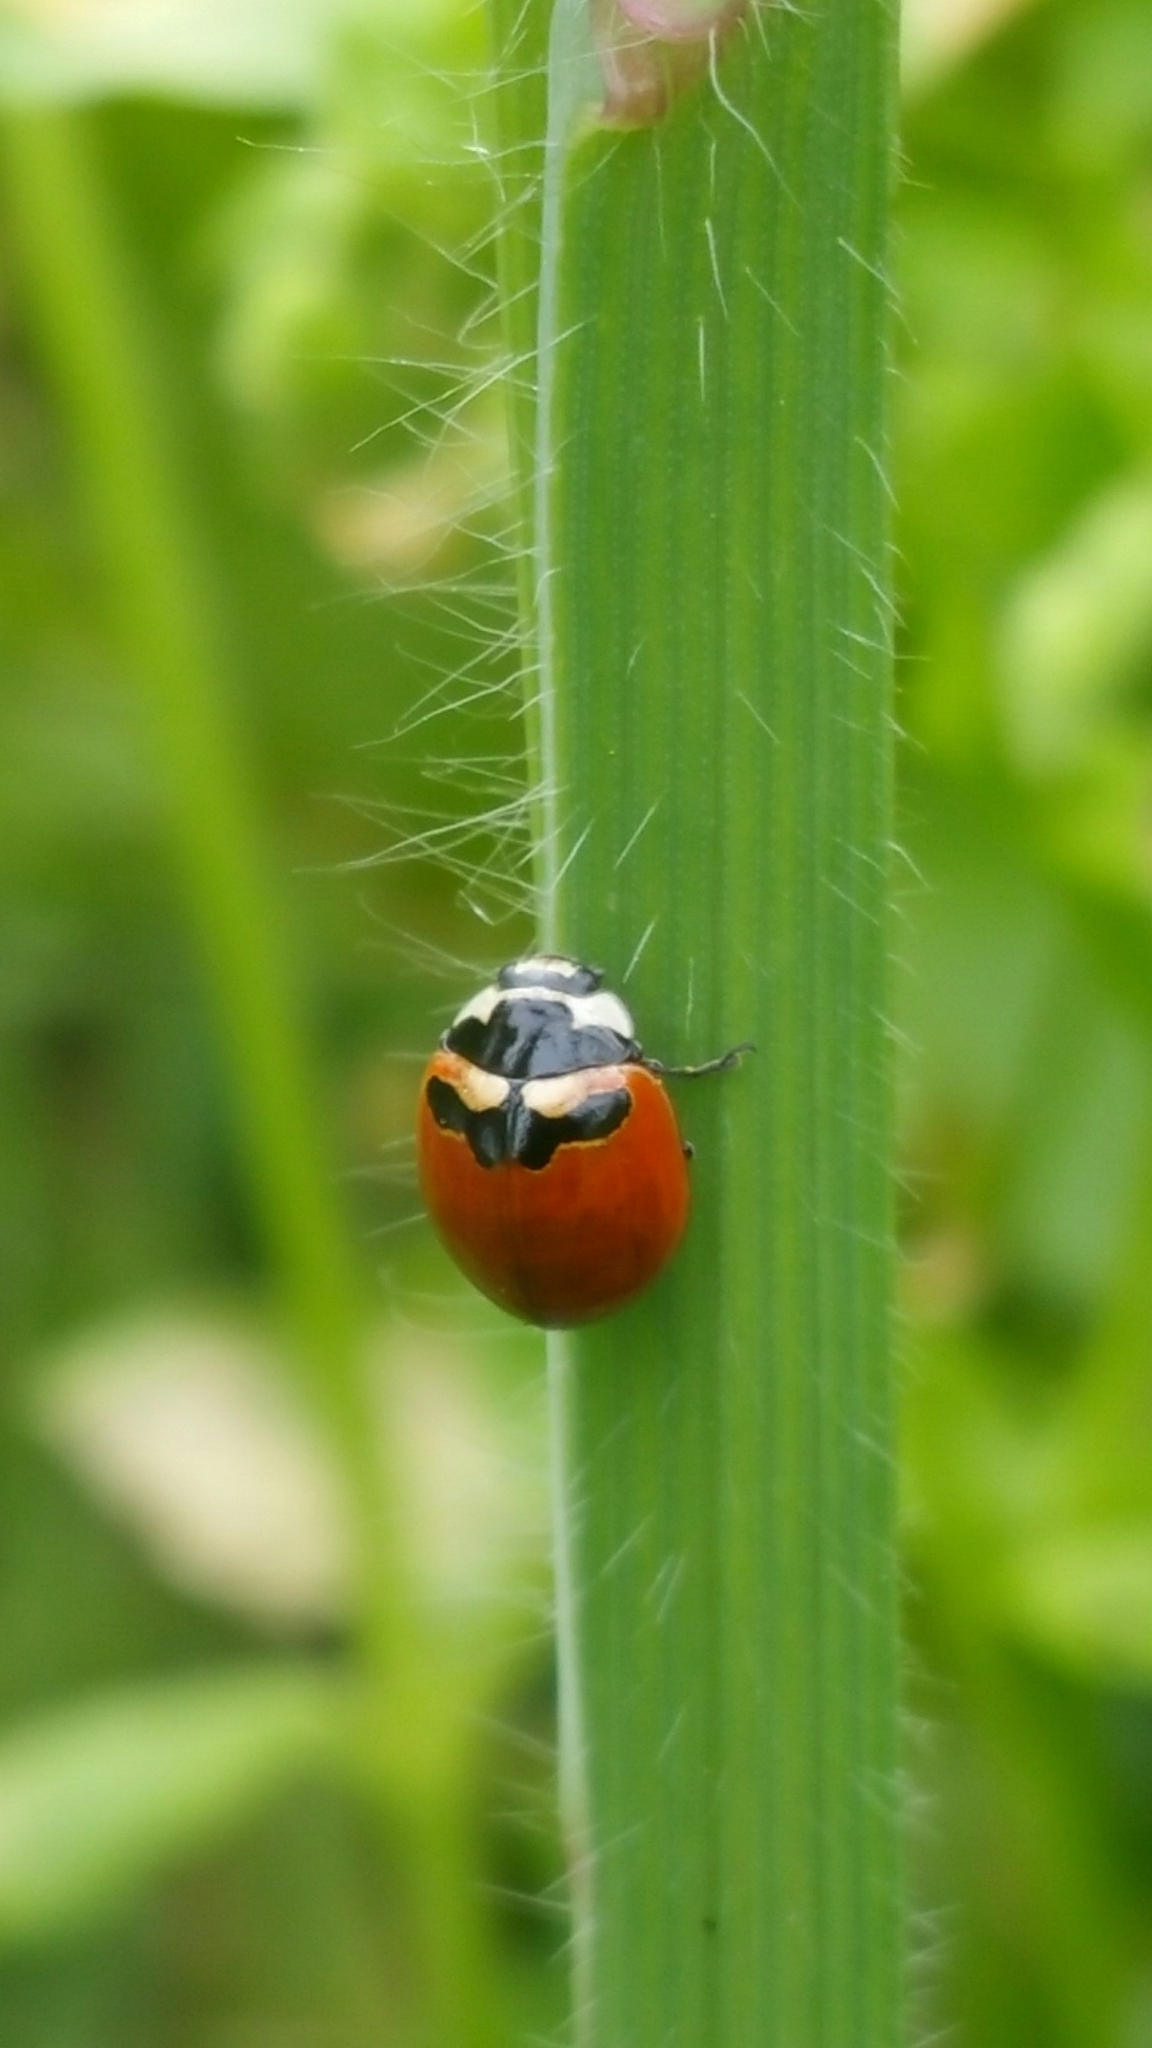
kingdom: Animalia
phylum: Arthropoda
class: Insecta
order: Coleoptera
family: Coccinellidae
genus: Coccinella
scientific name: Coccinella trifasciata
